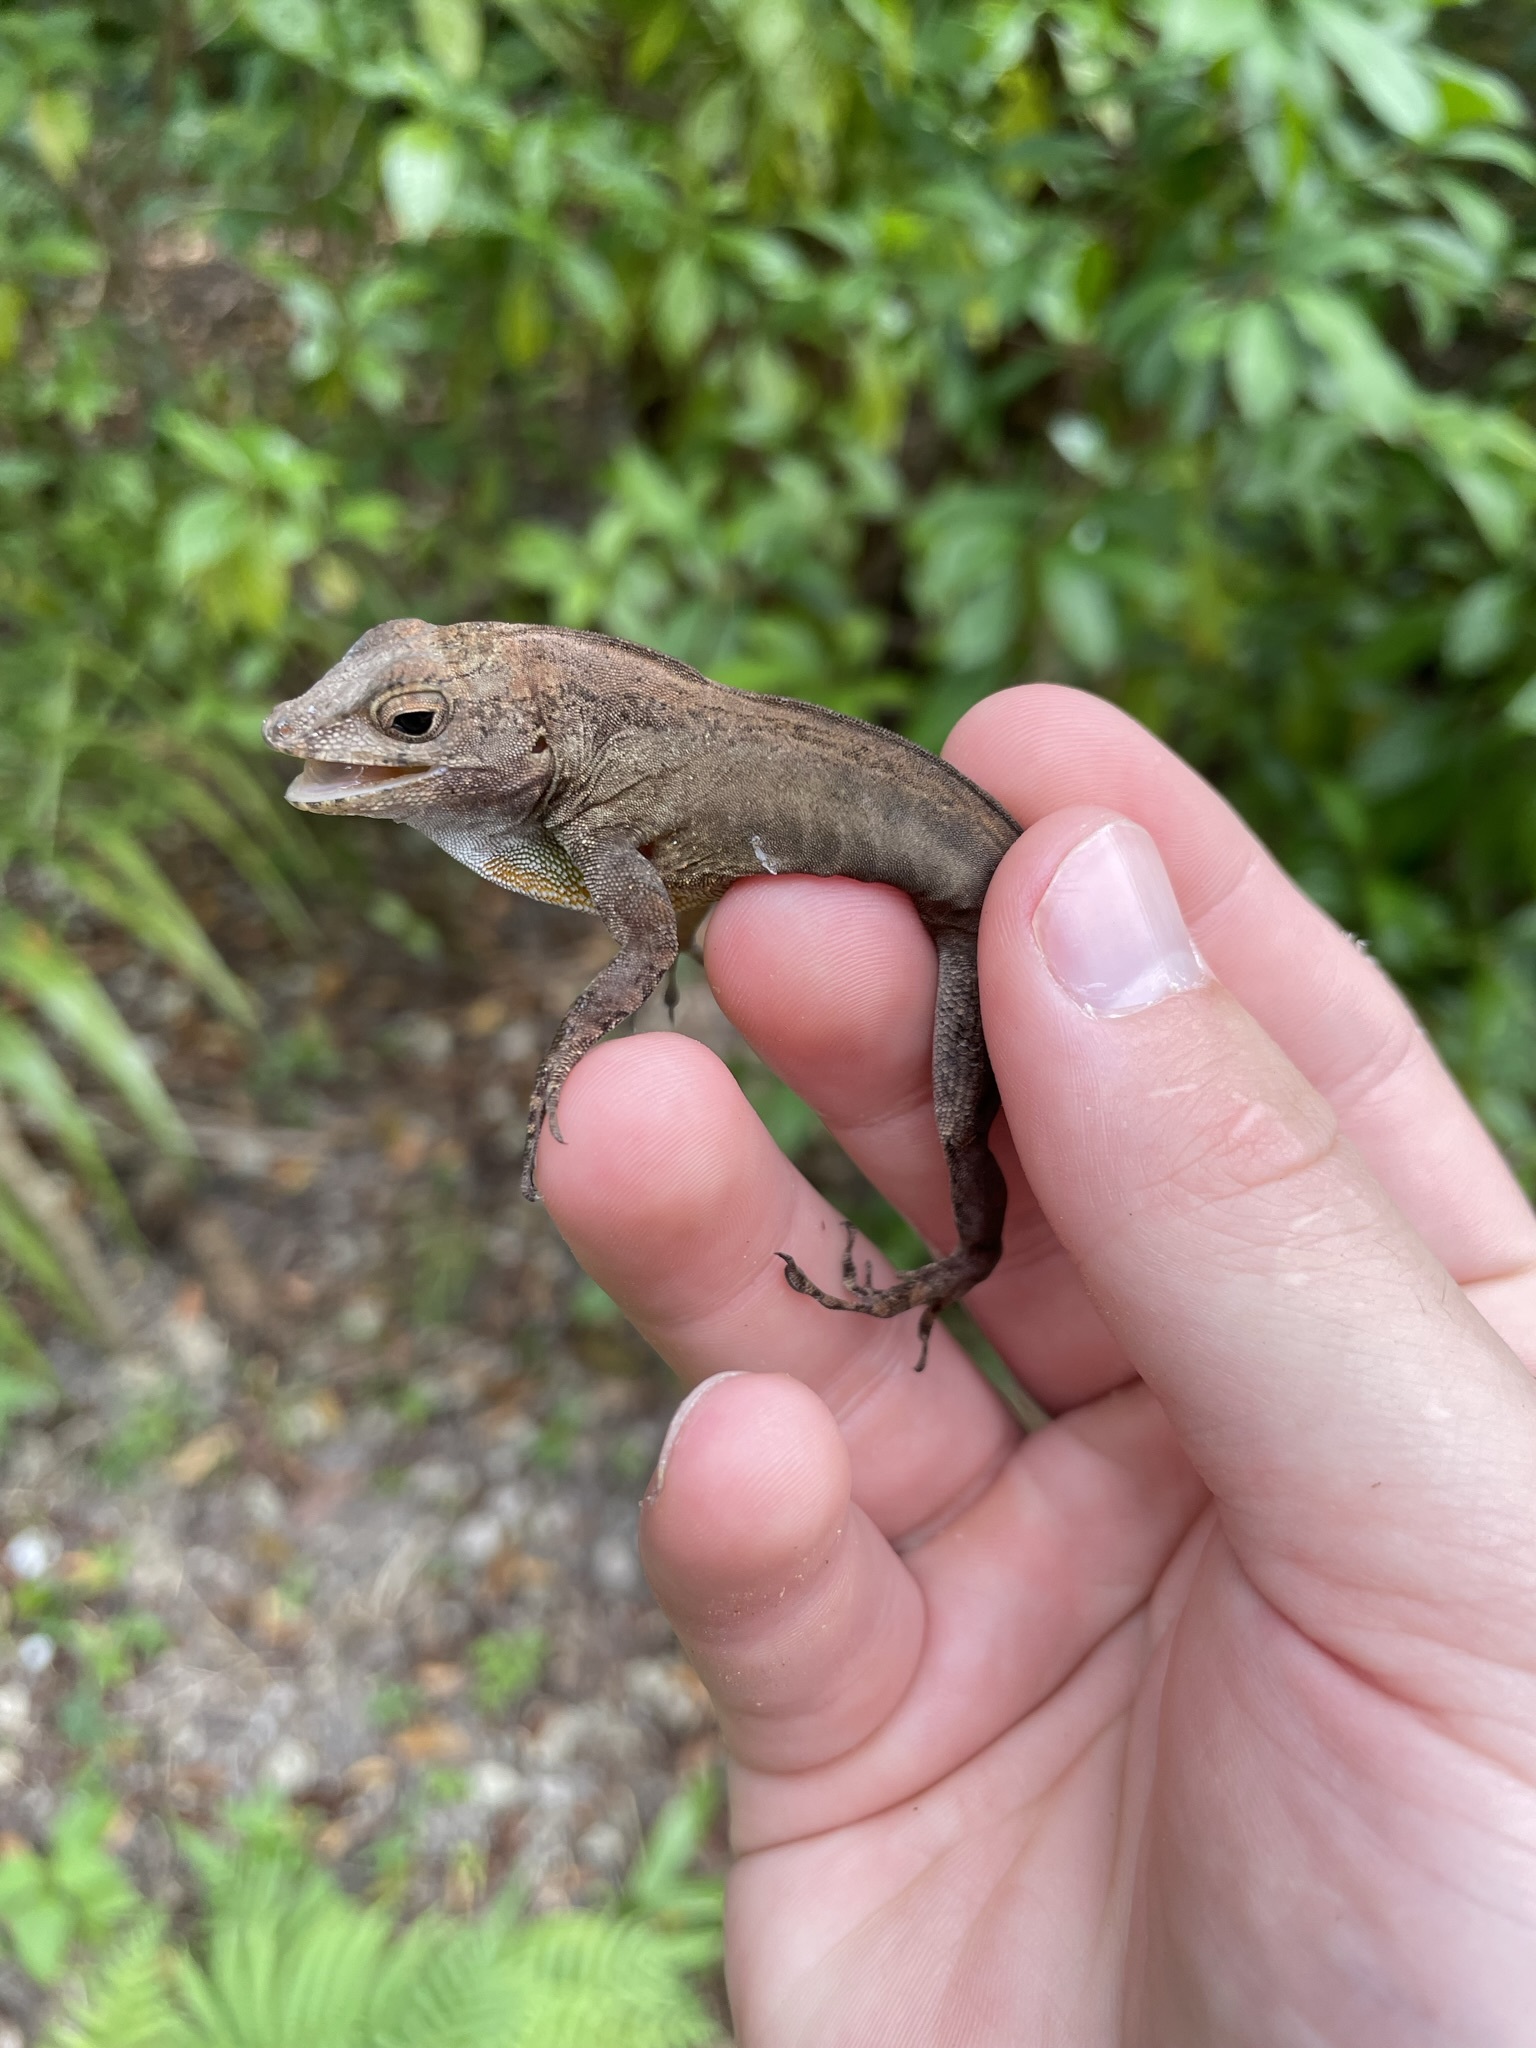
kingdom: Animalia
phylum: Chordata
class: Squamata
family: Dactyloidae
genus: Anolis
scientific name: Anolis cristatellus
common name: Crested anole
